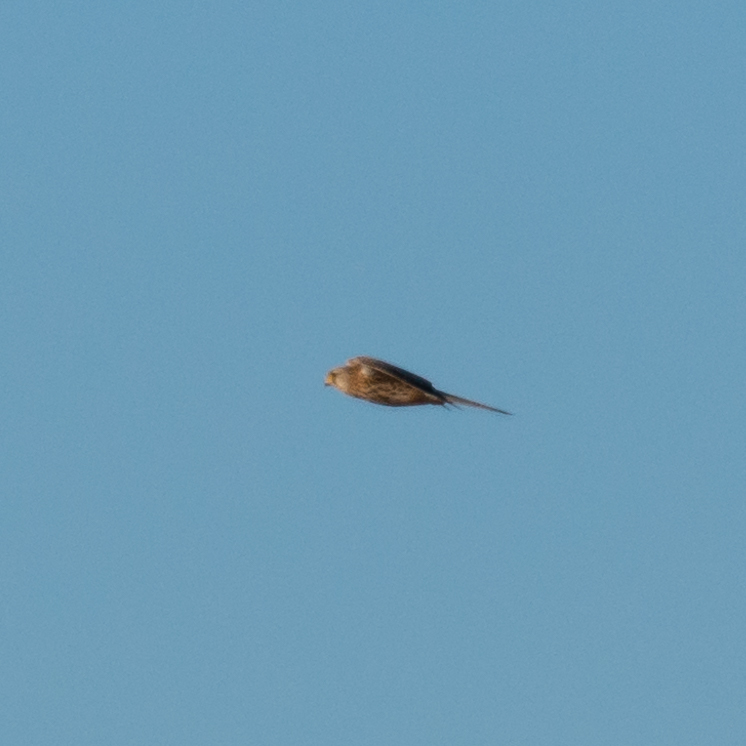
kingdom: Animalia
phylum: Chordata
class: Aves
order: Falconiformes
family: Falconidae
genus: Falco
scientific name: Falco tinnunculus
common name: Common kestrel
